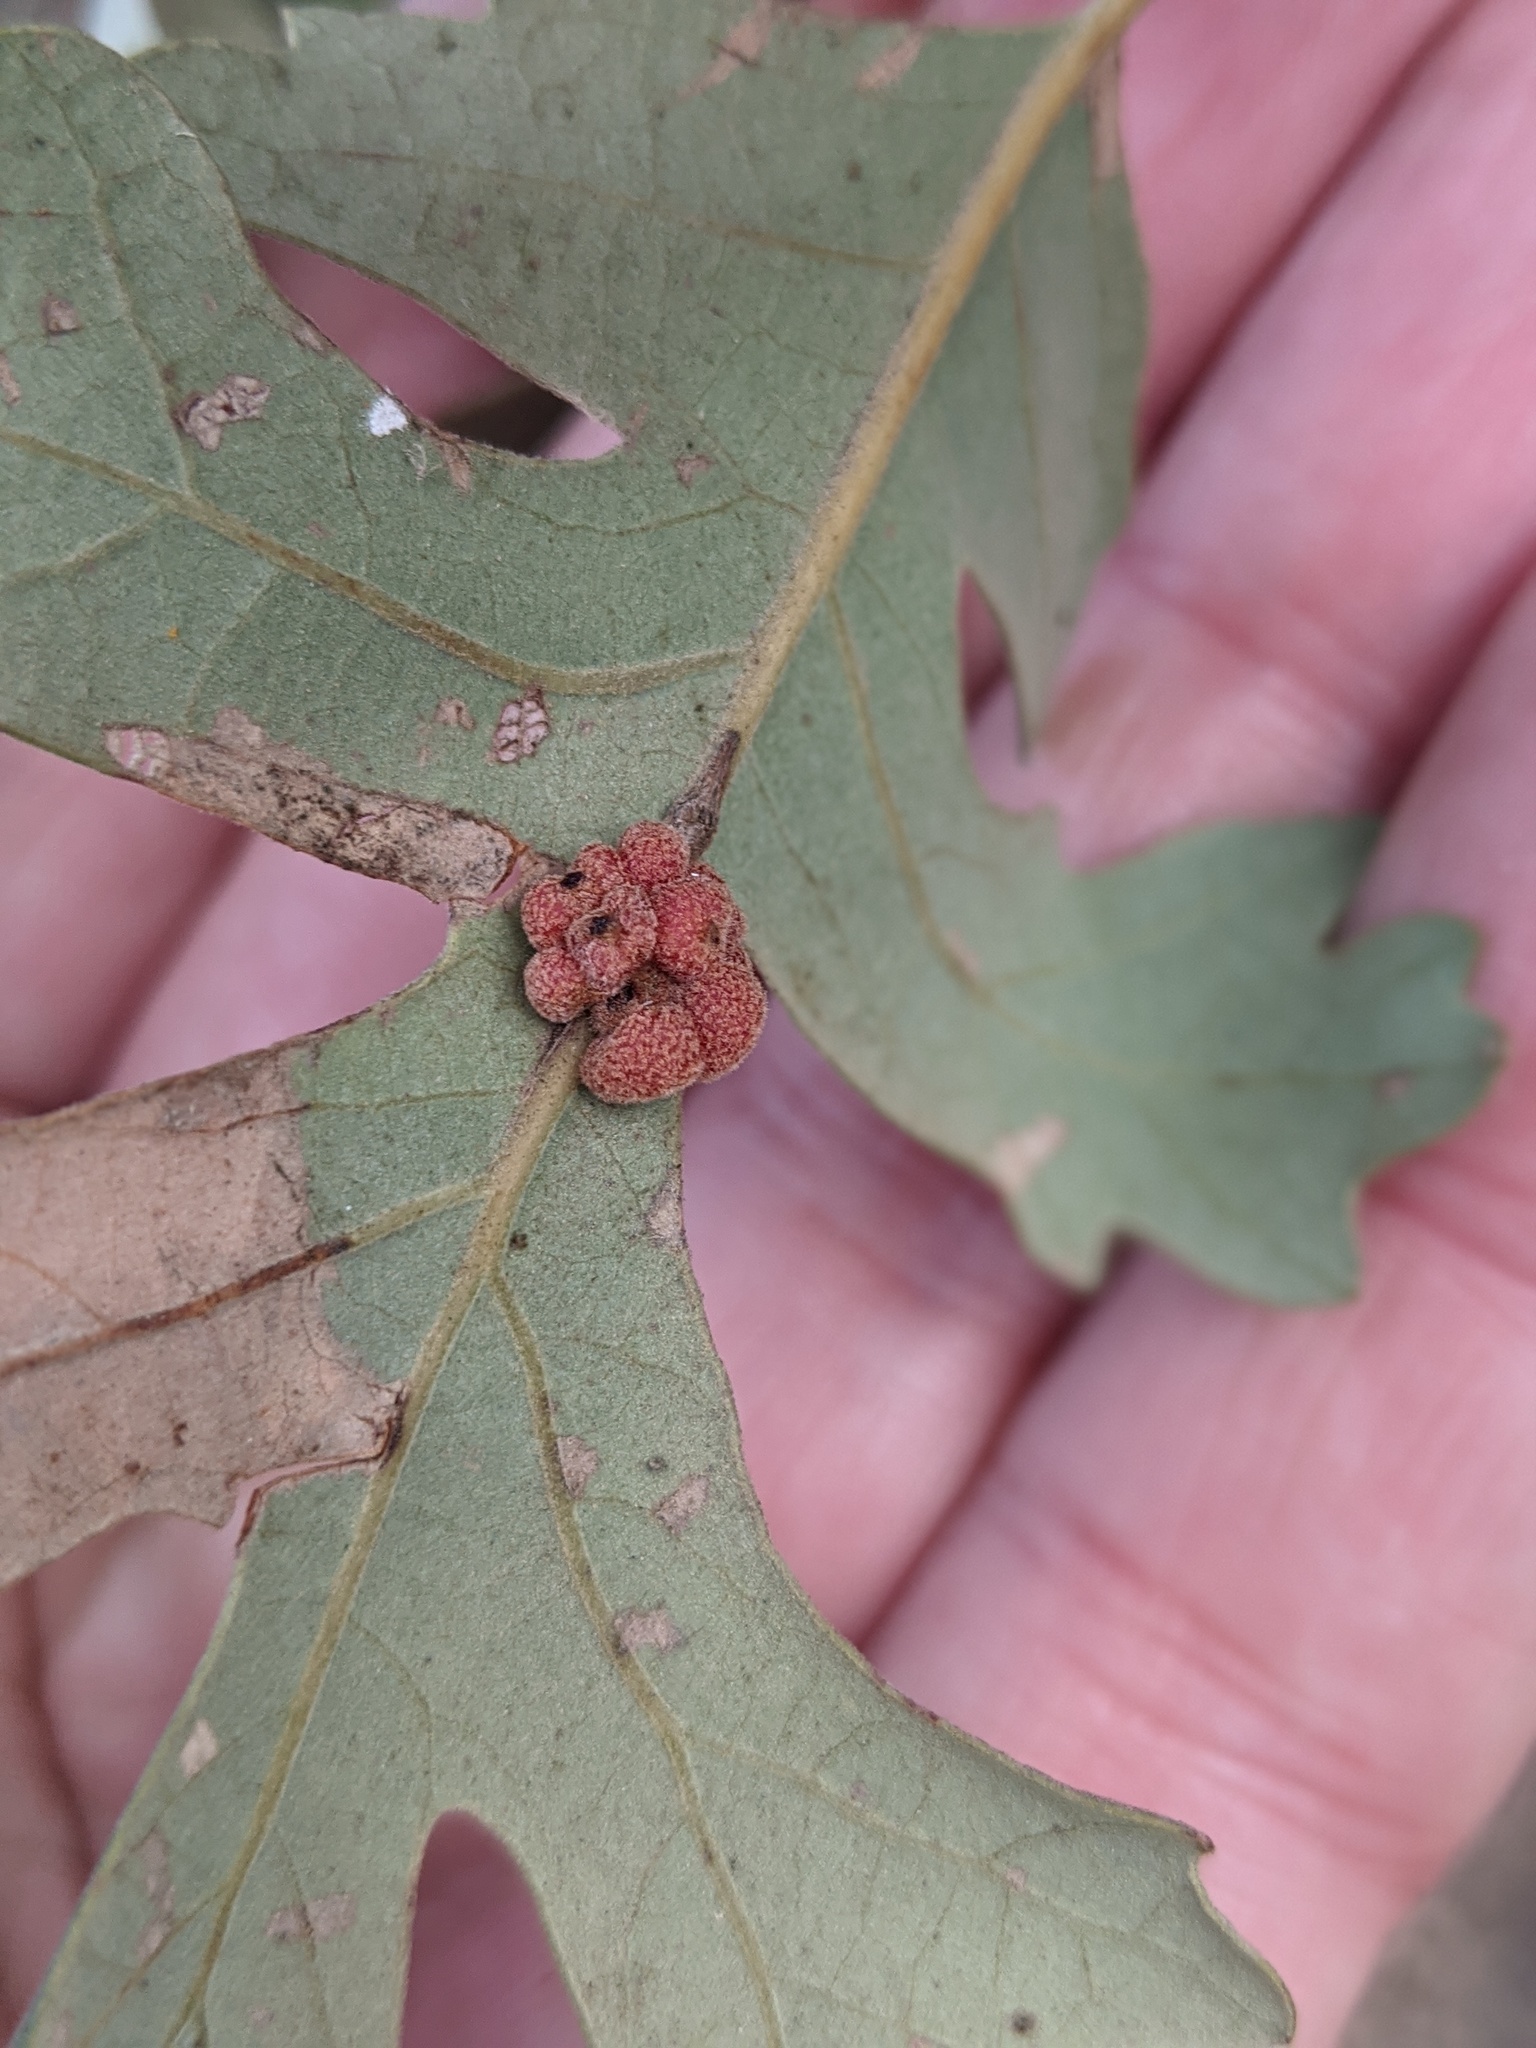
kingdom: Animalia
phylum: Arthropoda
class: Insecta
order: Hymenoptera
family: Cynipidae
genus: Andricus
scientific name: Andricus
